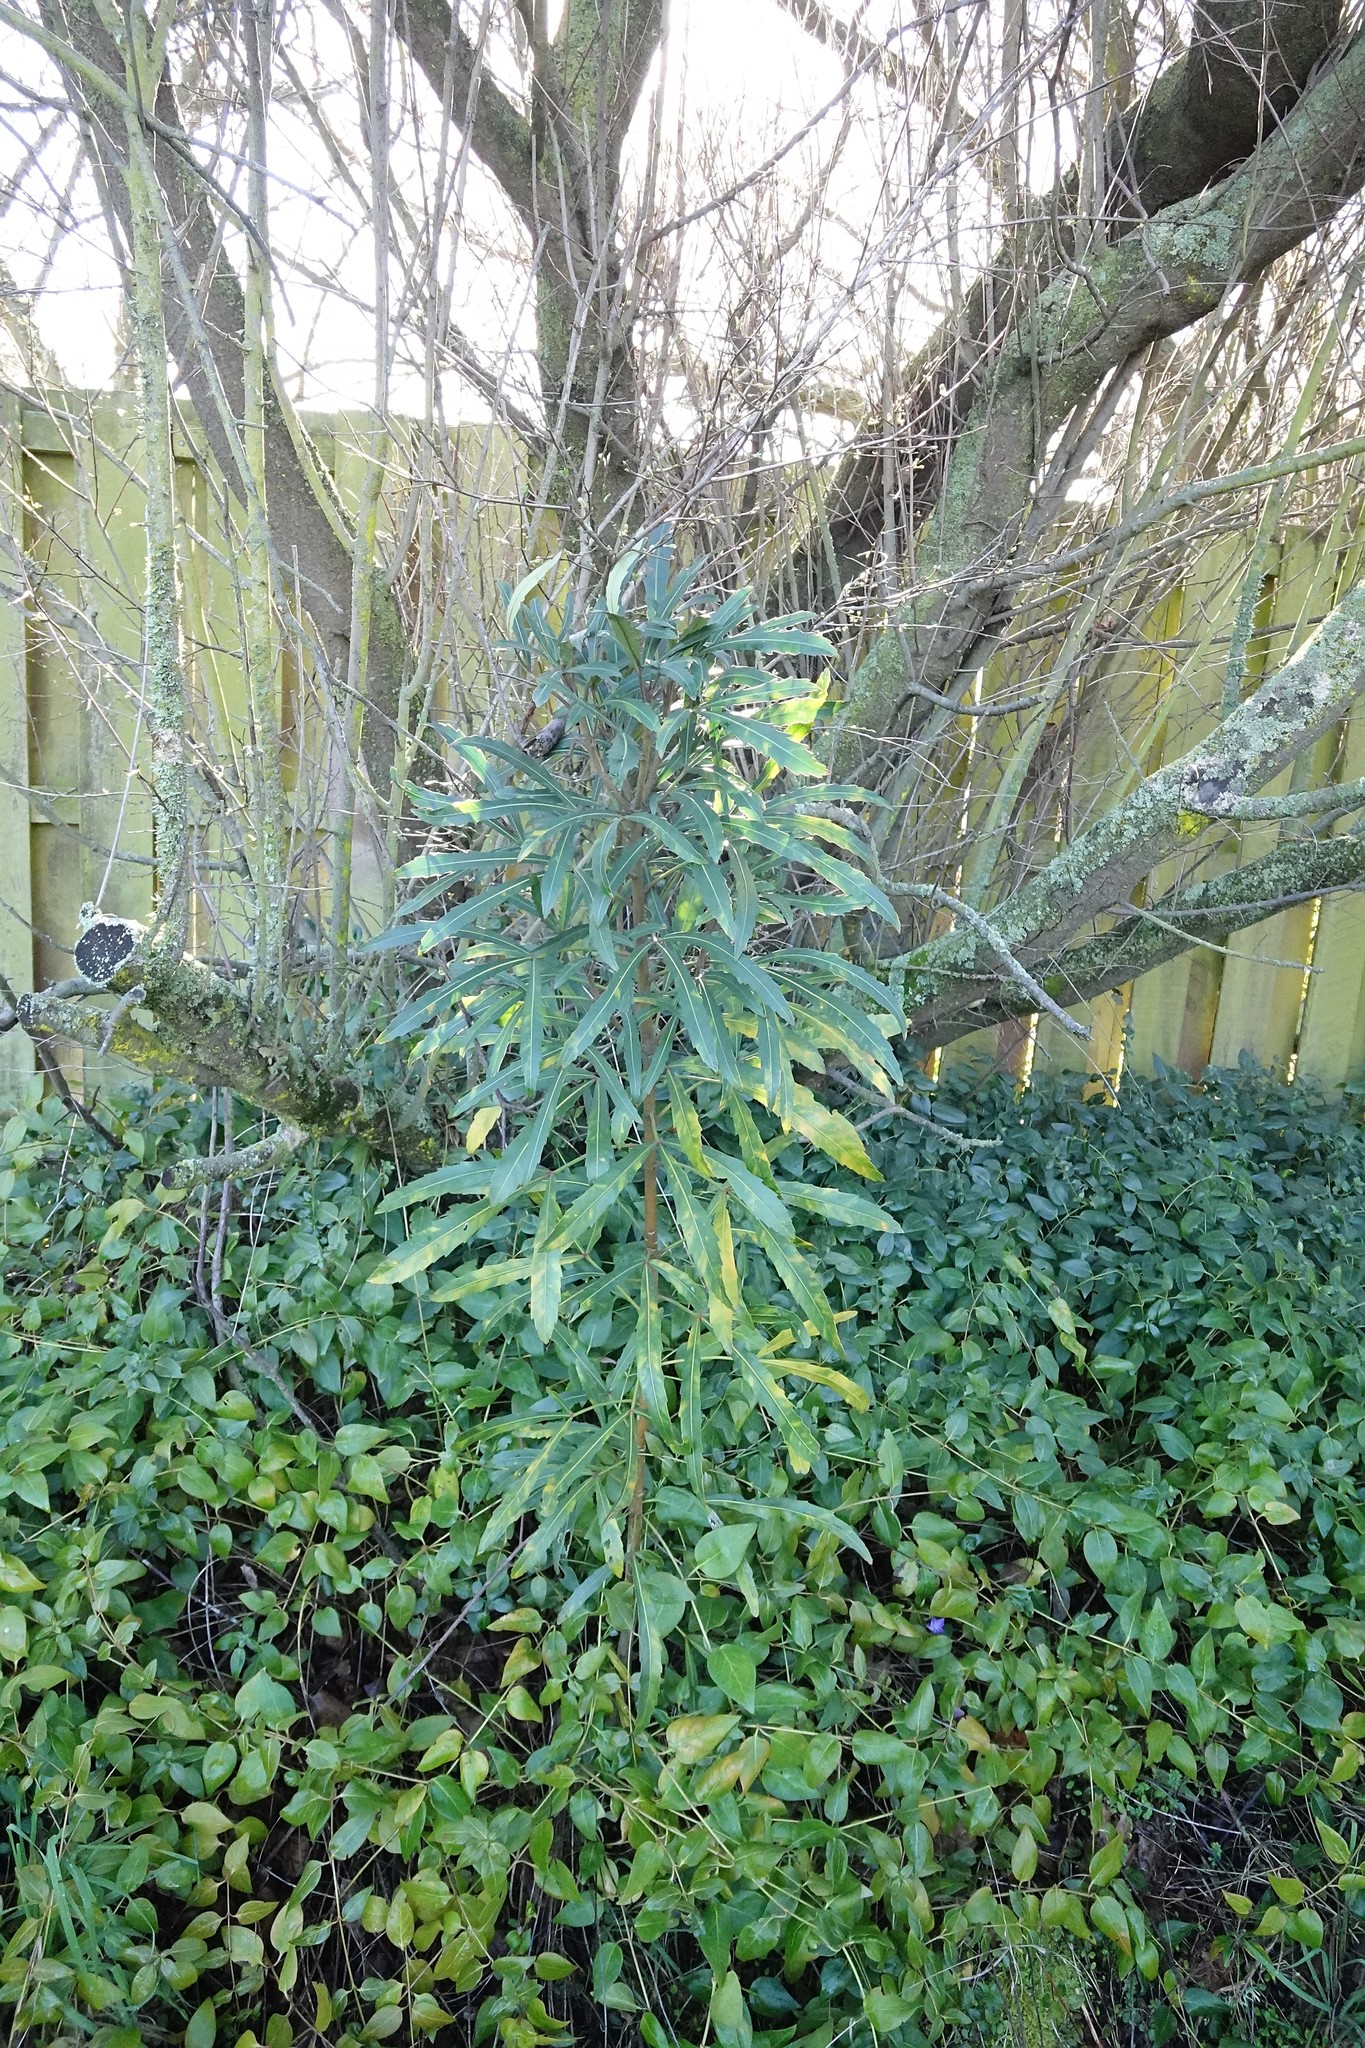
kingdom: Plantae
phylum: Tracheophyta
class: Magnoliopsida
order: Apiales
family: Araliaceae
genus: Pseudopanax
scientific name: Pseudopanax
